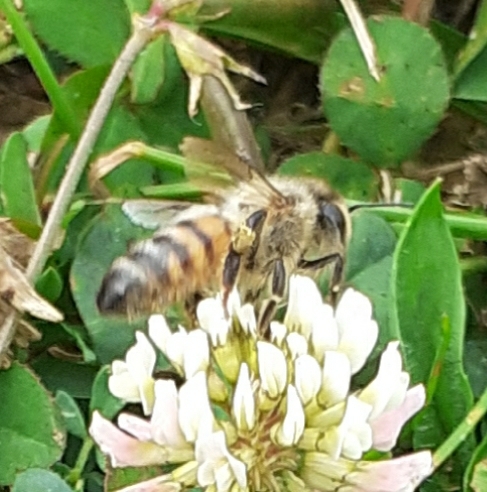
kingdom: Animalia
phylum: Arthropoda
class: Insecta
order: Hymenoptera
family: Apidae
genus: Apis
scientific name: Apis mellifera
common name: Honey bee
